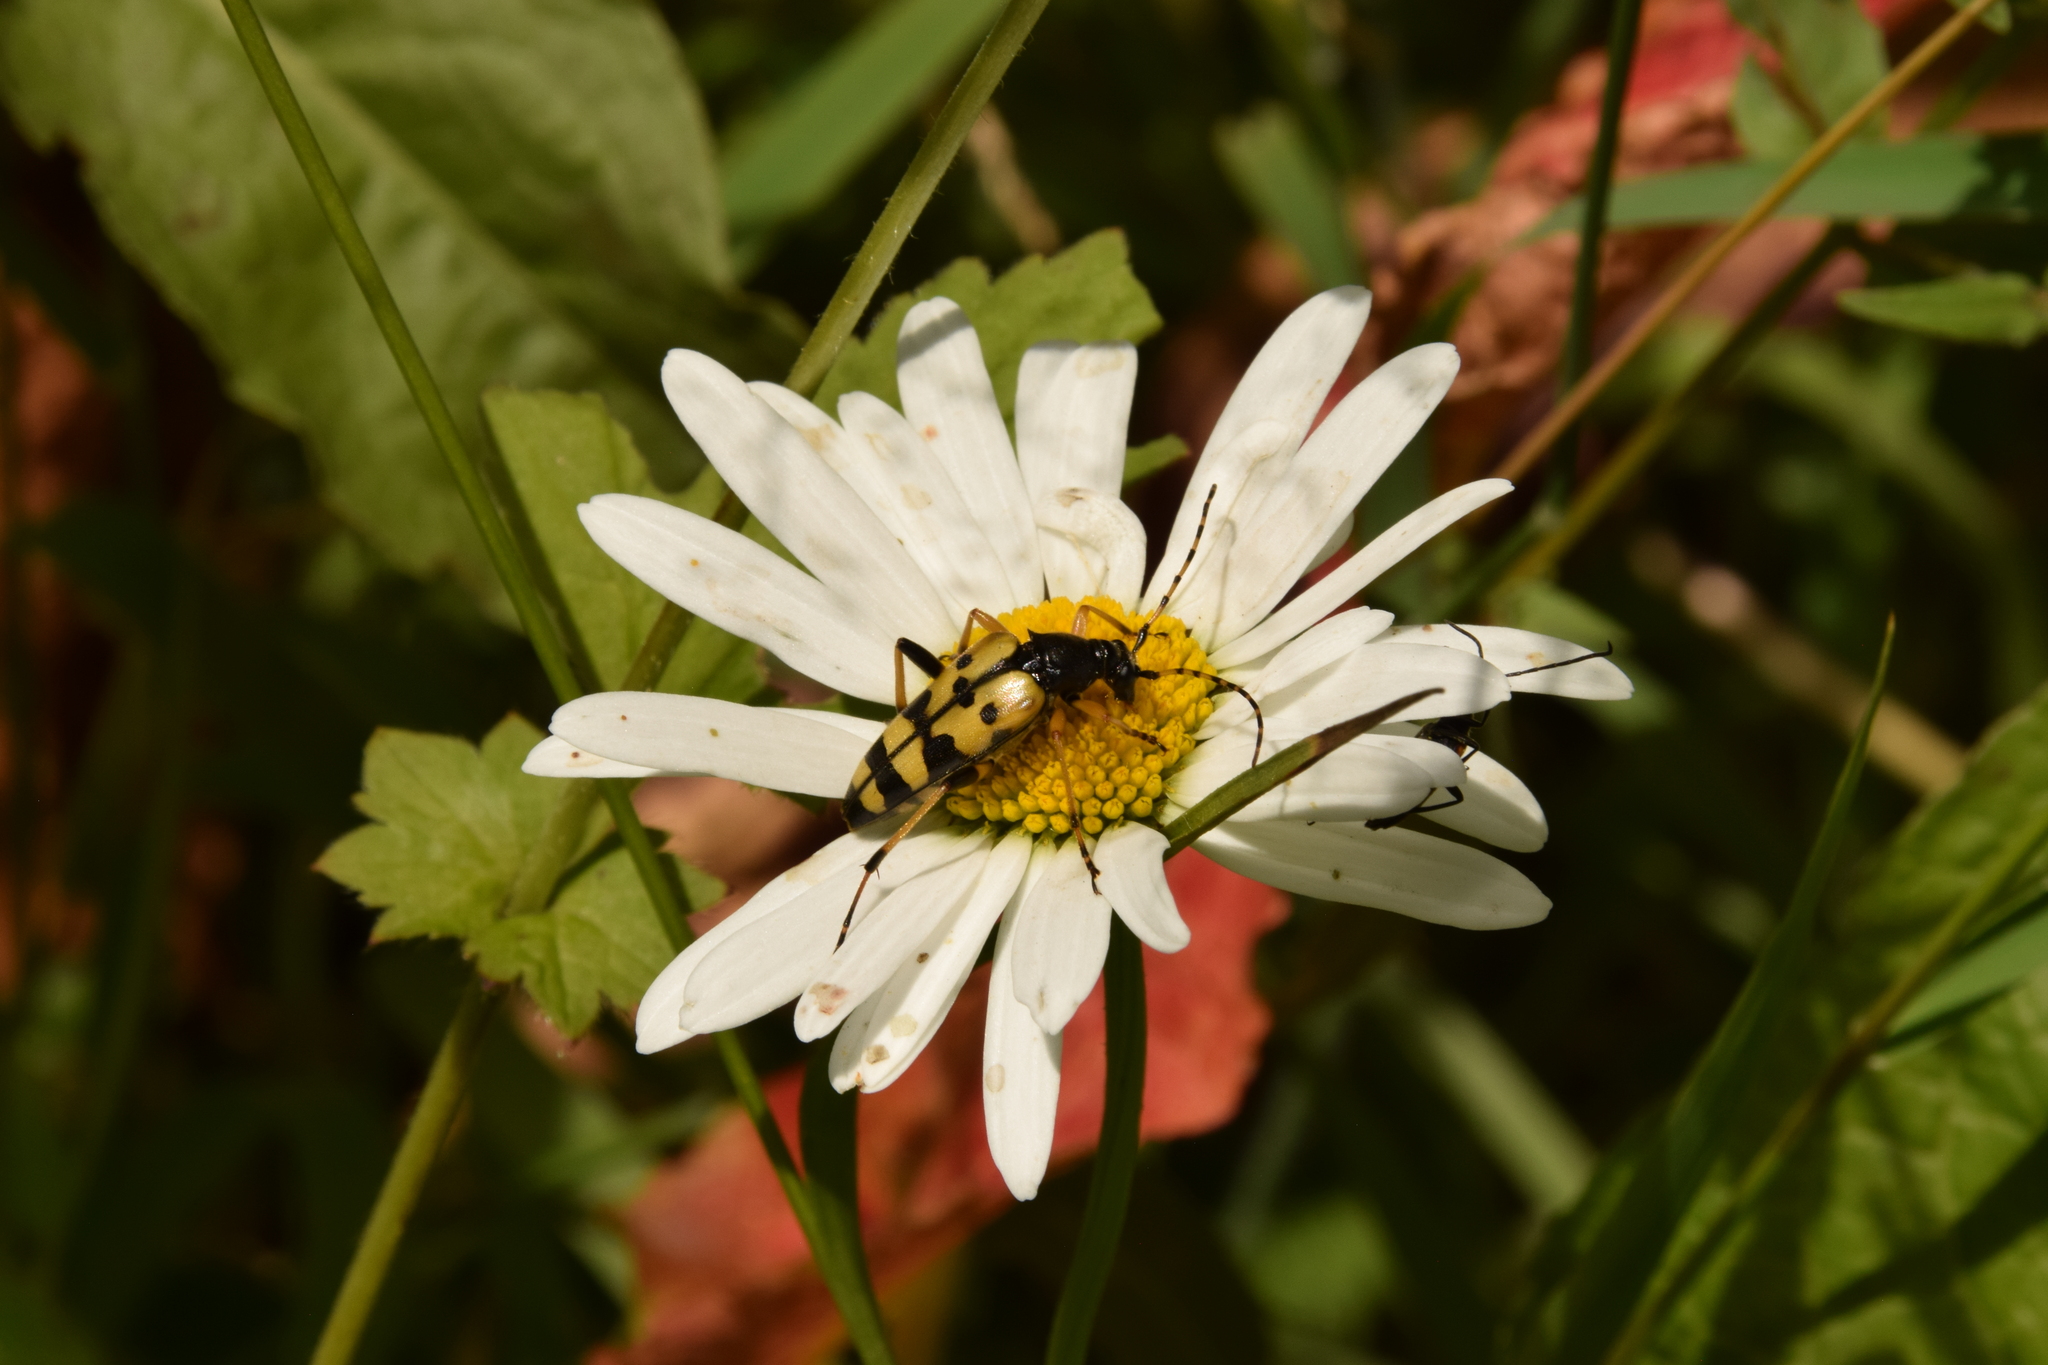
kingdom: Animalia
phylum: Arthropoda
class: Insecta
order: Coleoptera
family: Cerambycidae
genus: Rutpela
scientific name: Rutpela maculata
